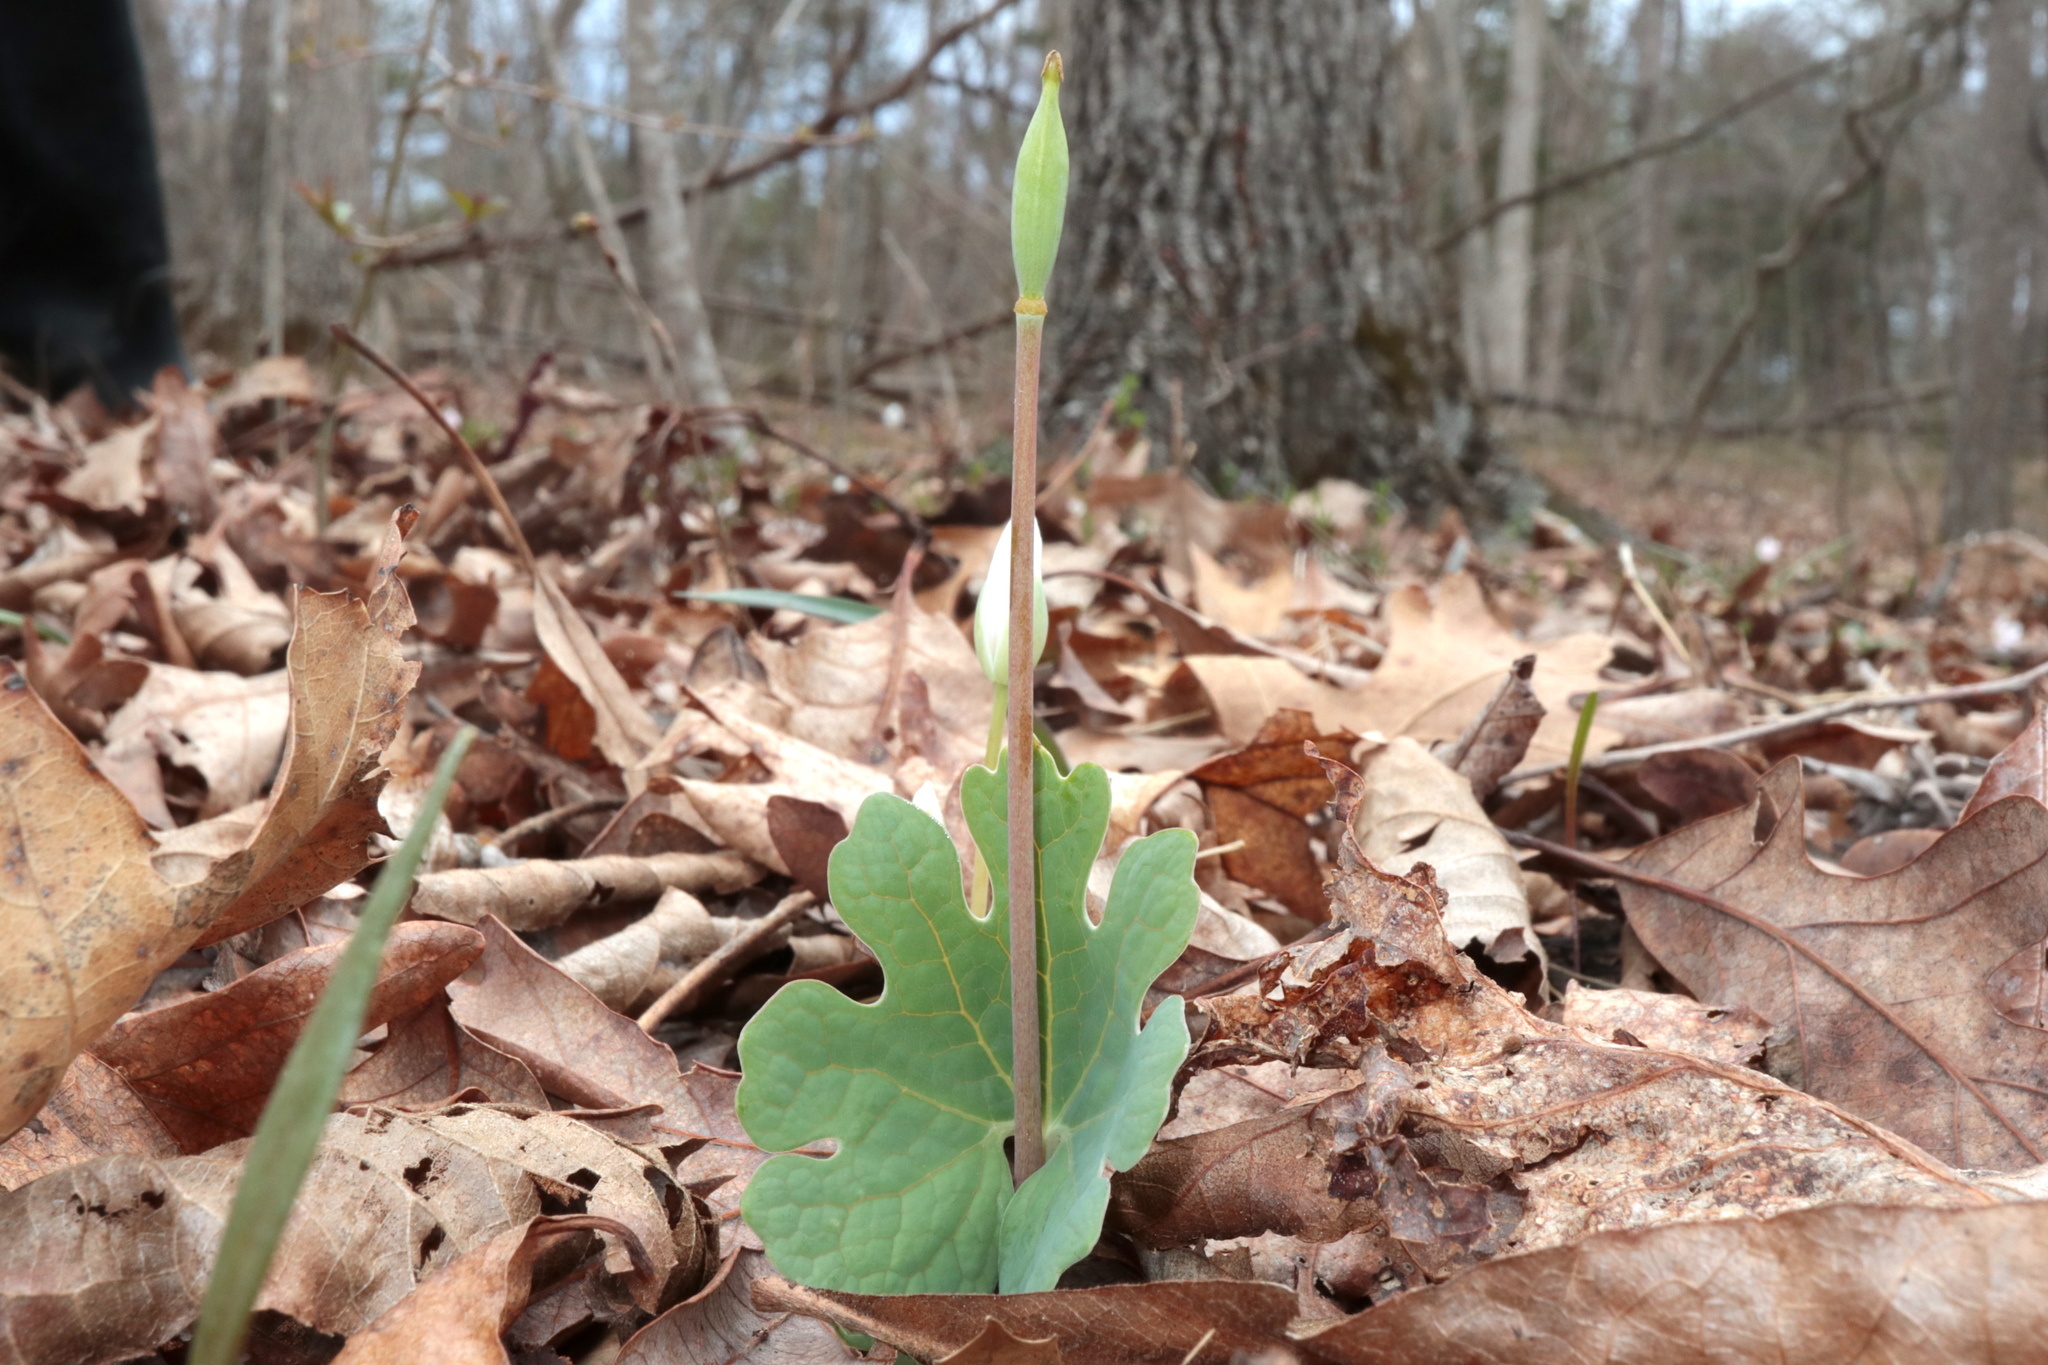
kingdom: Plantae
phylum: Tracheophyta
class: Magnoliopsida
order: Ranunculales
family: Papaveraceae
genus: Sanguinaria
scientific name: Sanguinaria canadensis
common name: Bloodroot
